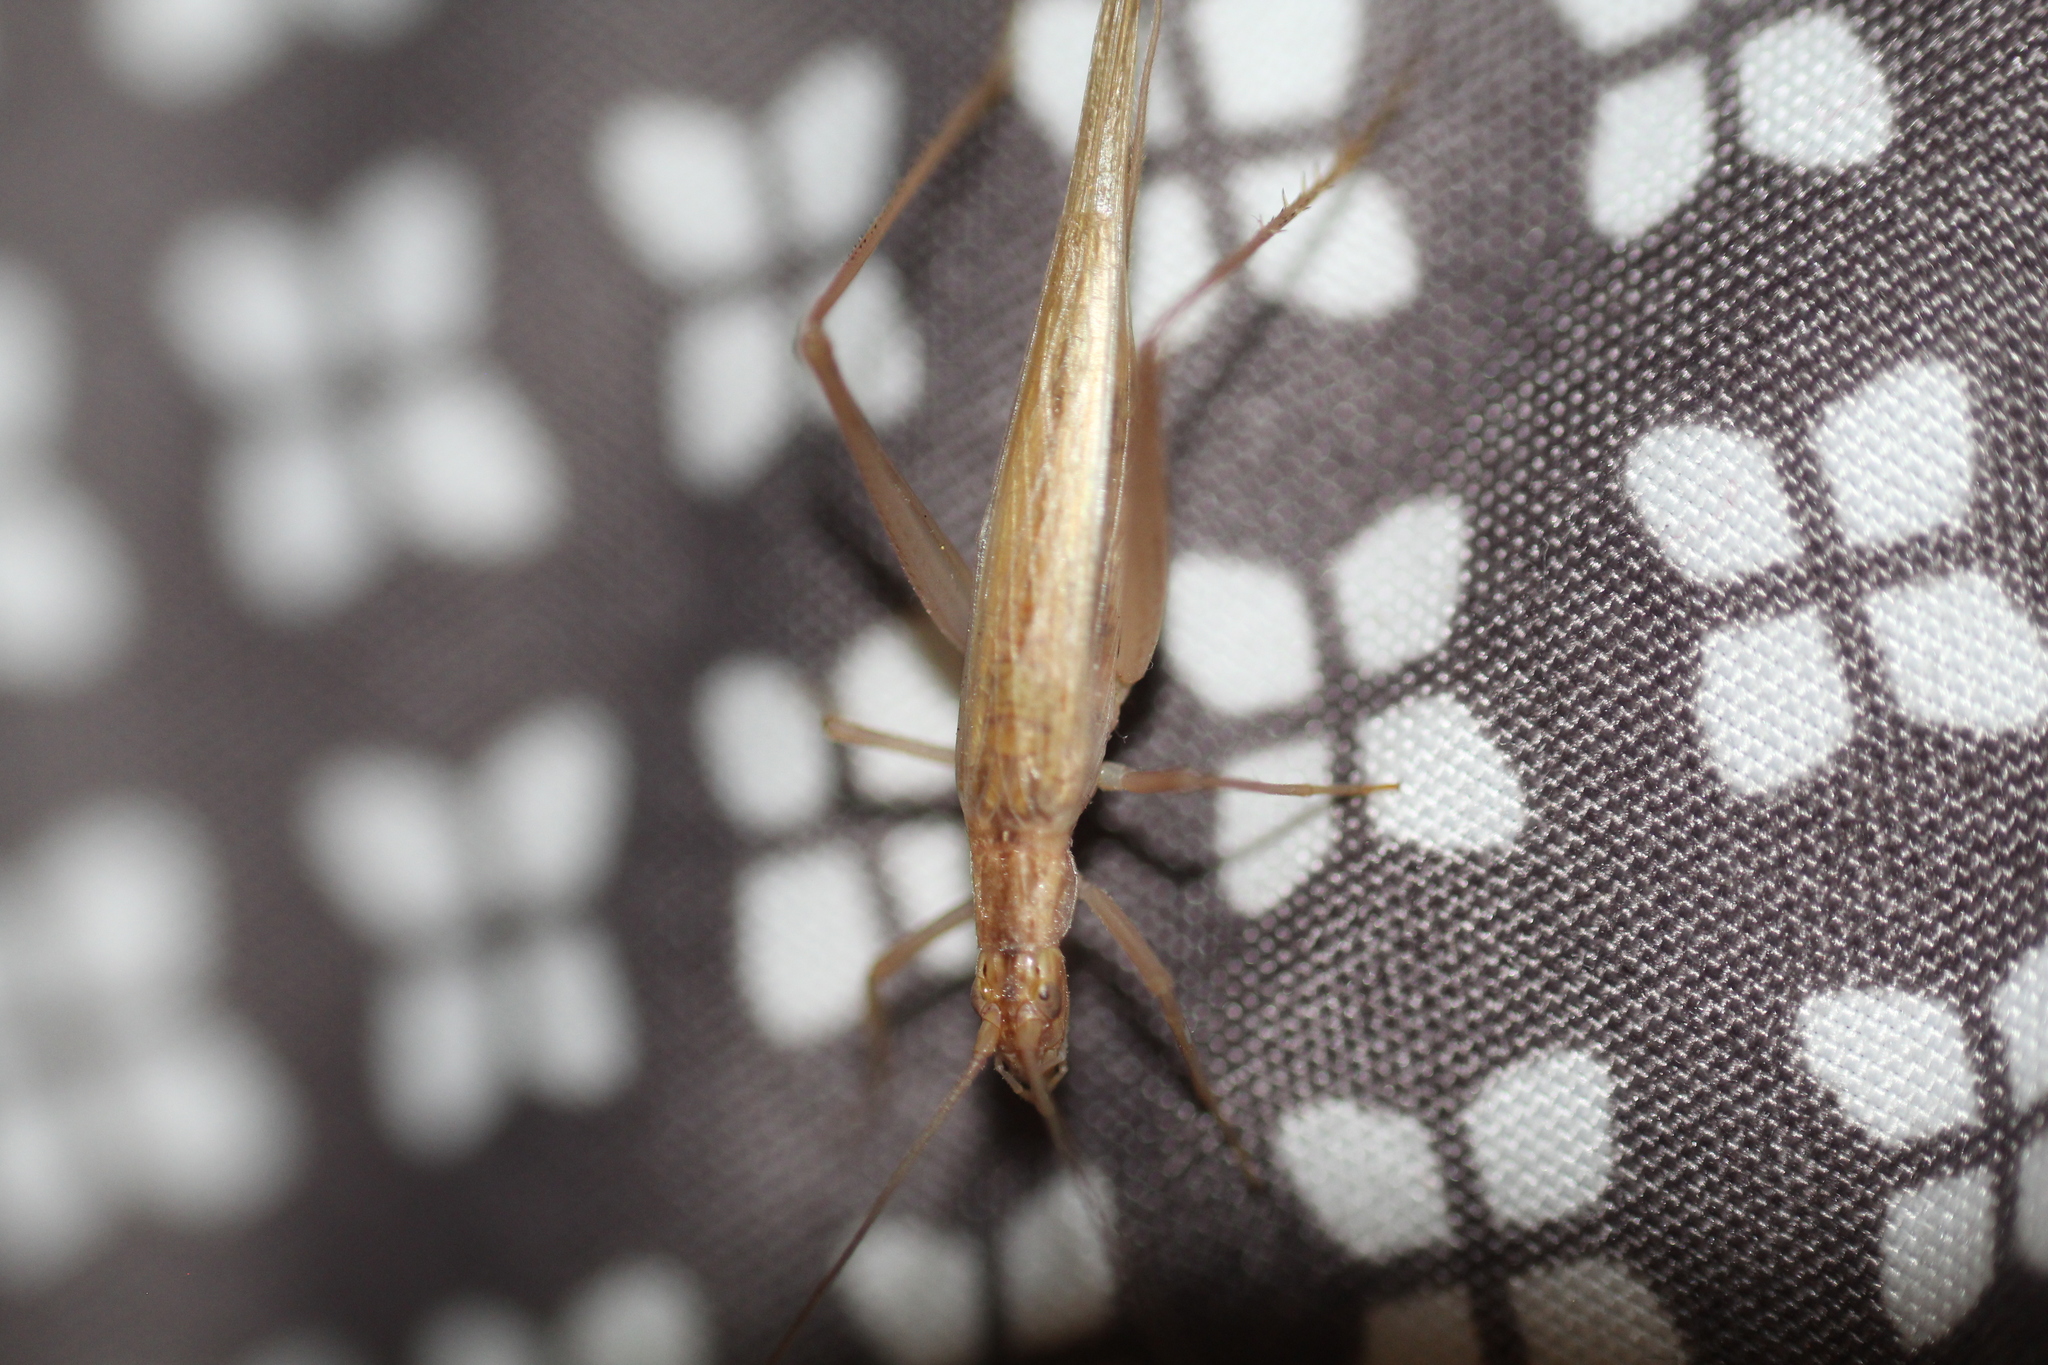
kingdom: Animalia
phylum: Arthropoda
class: Insecta
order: Orthoptera
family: Gryllidae
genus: Oecanthus
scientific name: Oecanthus pellucens
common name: Tree-cricket
